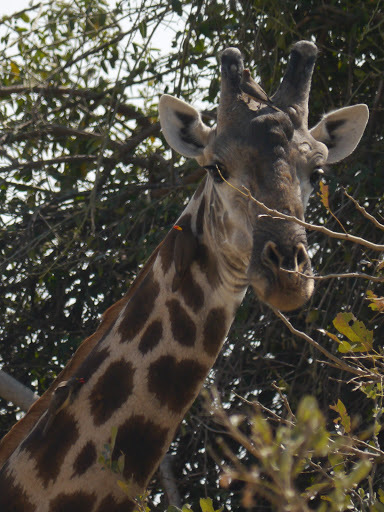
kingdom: Animalia
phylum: Chordata
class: Aves
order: Passeriformes
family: Buphagidae
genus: Buphagus
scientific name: Buphagus africanus
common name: Yellow-billed oxpecker
